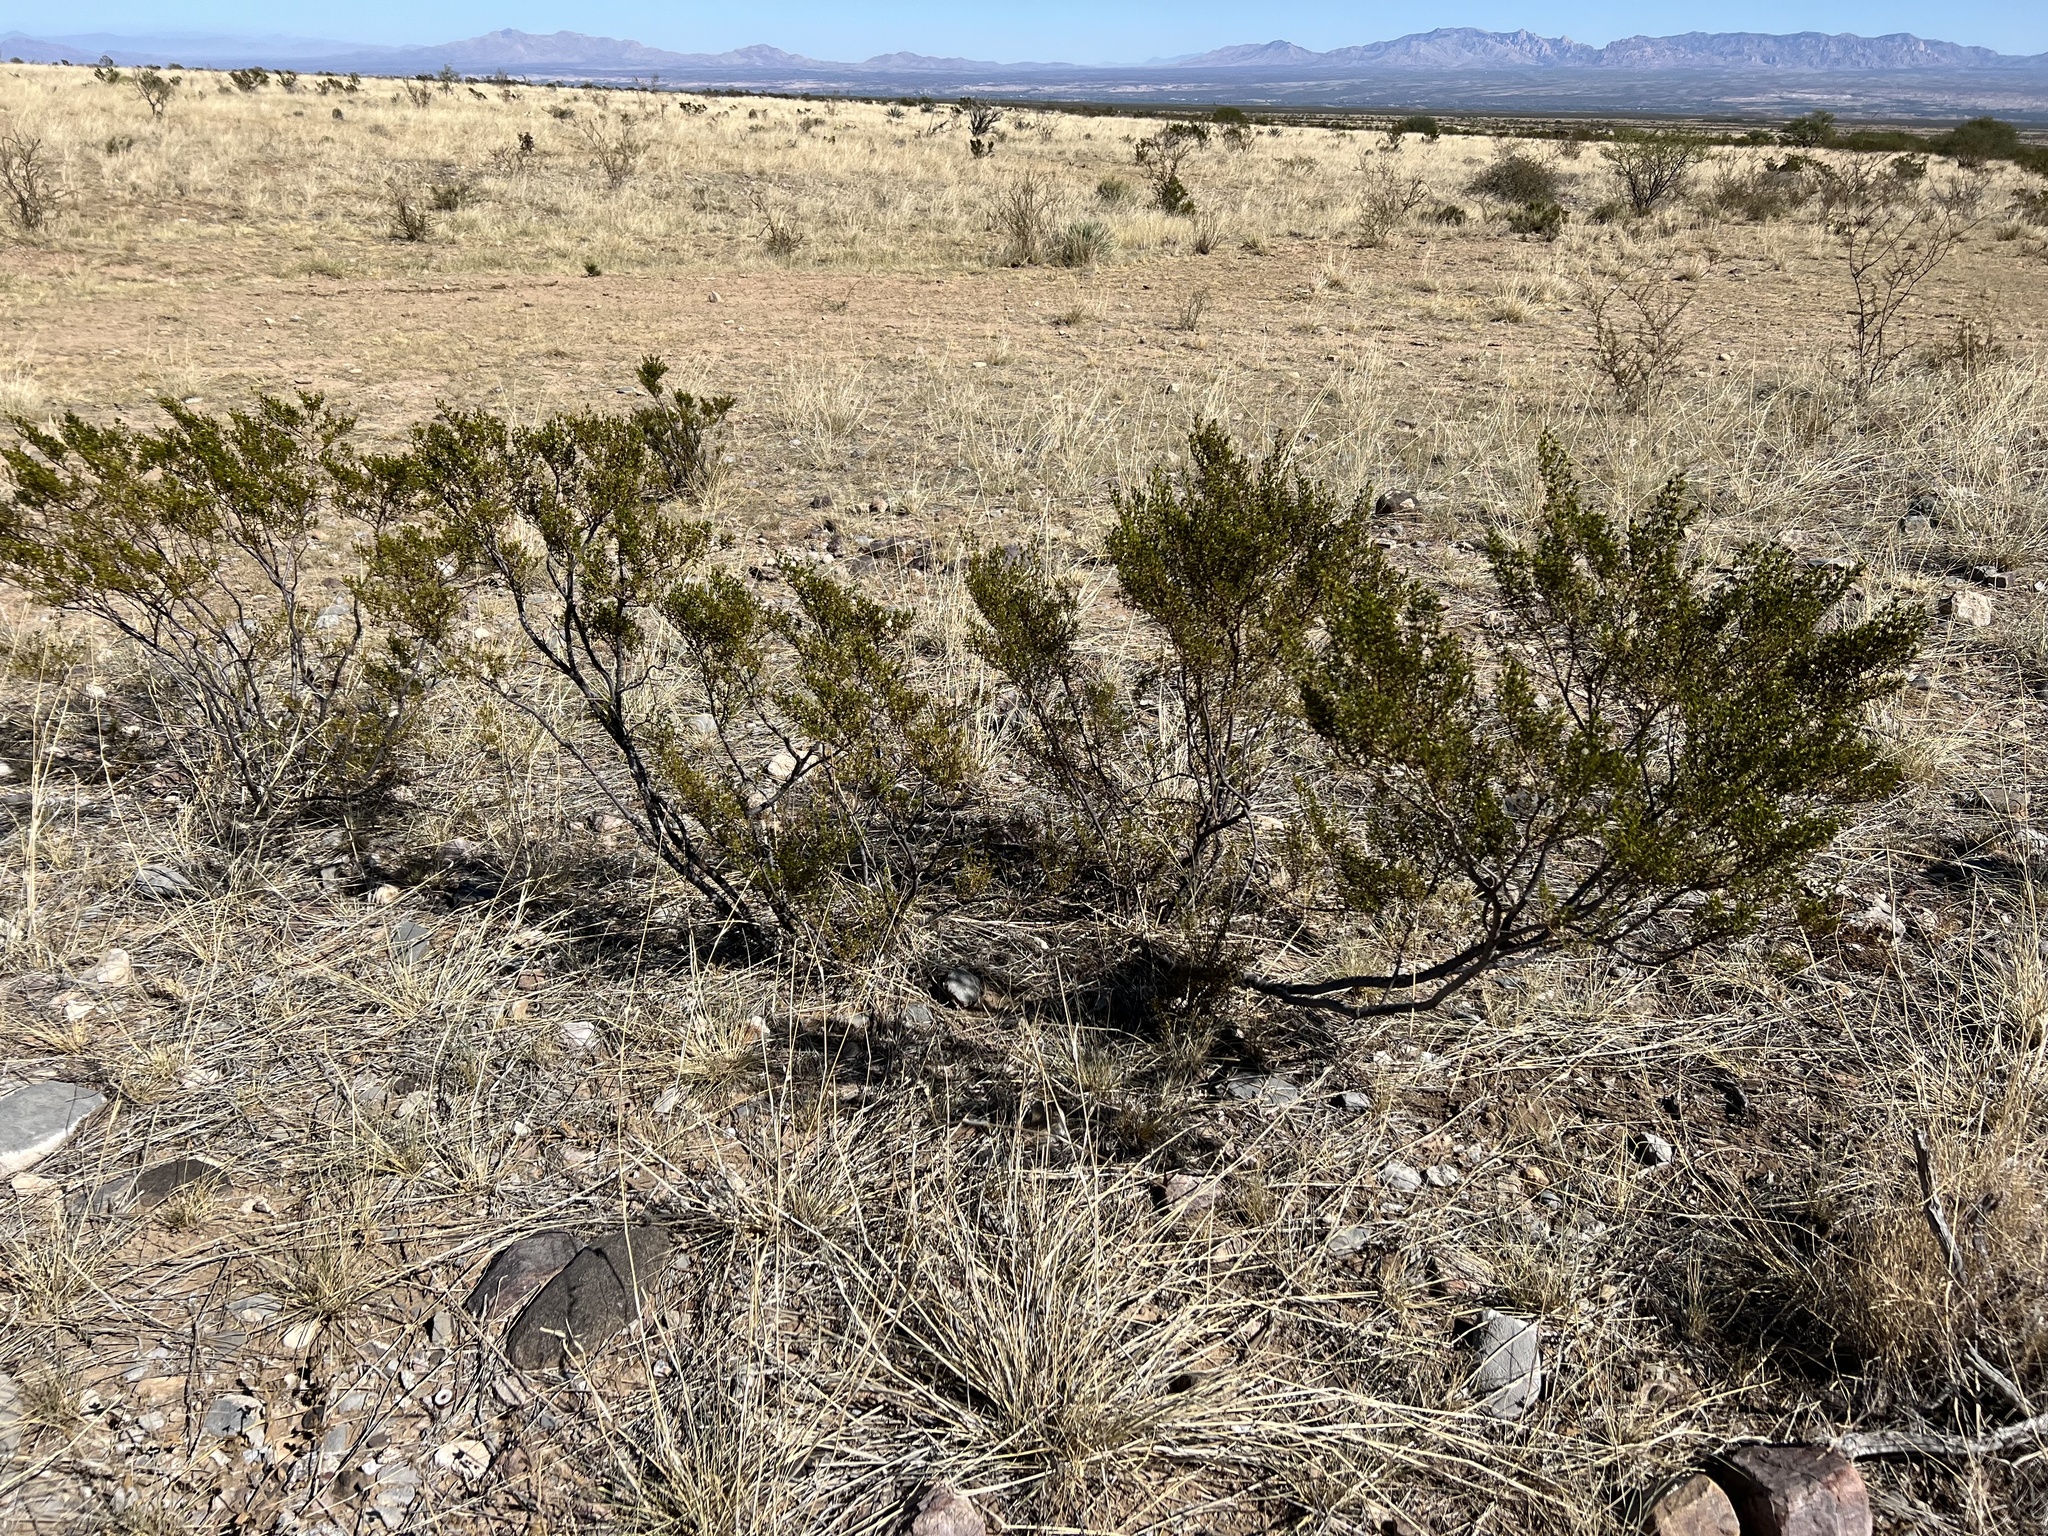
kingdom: Plantae
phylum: Tracheophyta
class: Magnoliopsida
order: Zygophyllales
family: Zygophyllaceae
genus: Larrea
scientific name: Larrea tridentata
